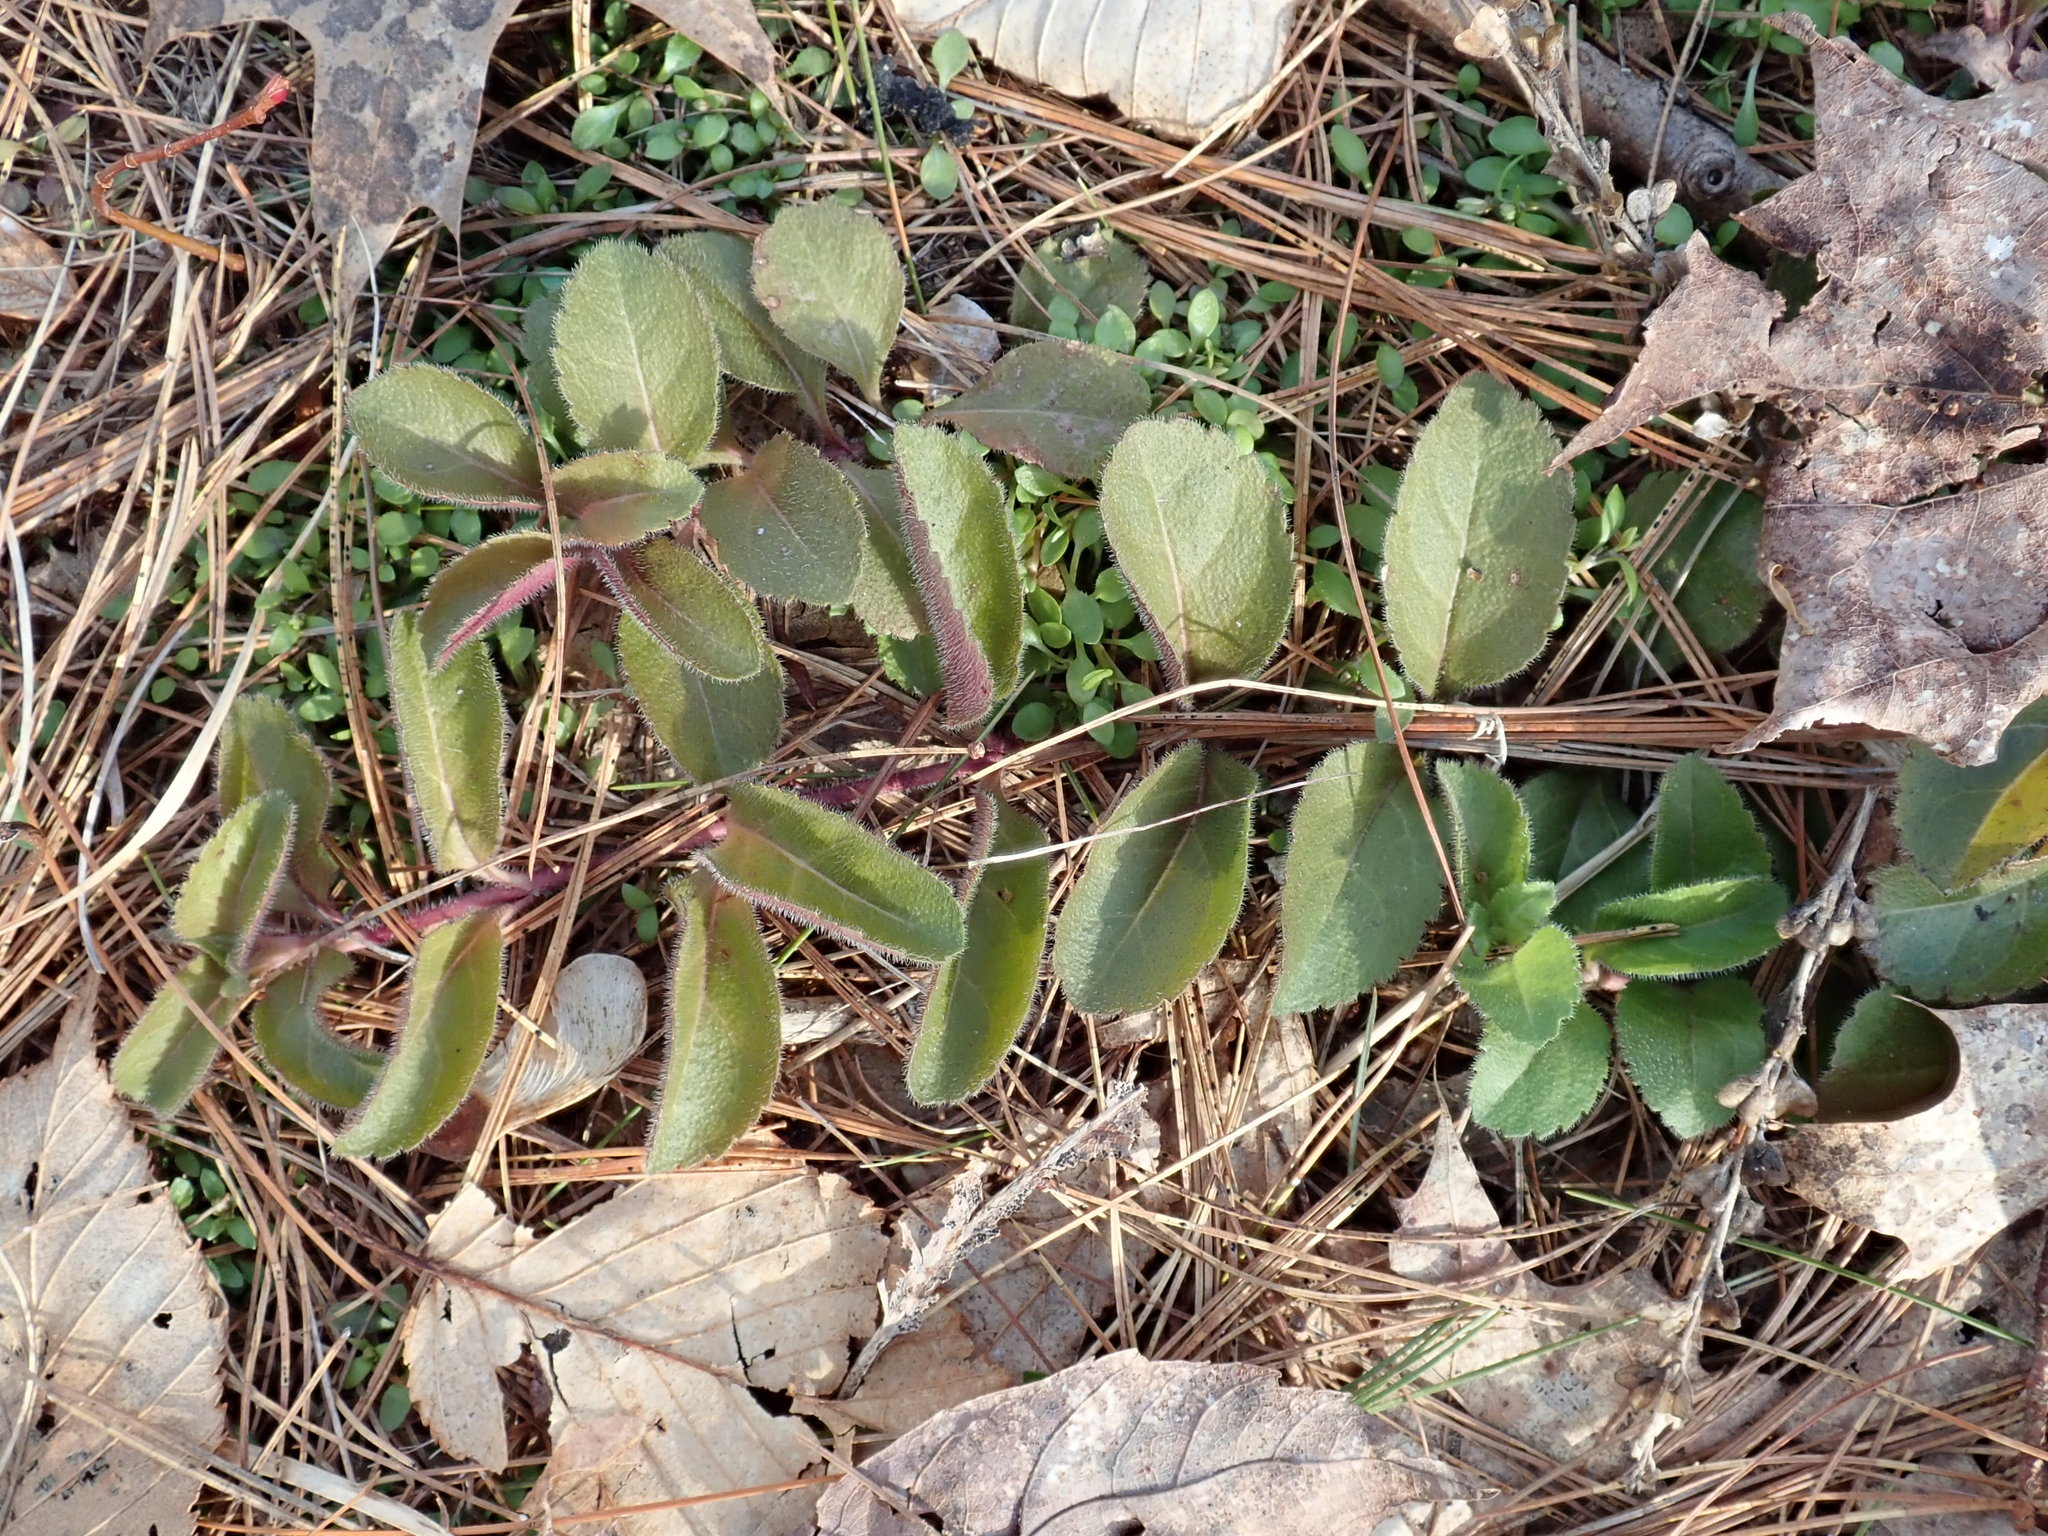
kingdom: Plantae
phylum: Tracheophyta
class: Magnoliopsida
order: Lamiales
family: Plantaginaceae
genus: Veronica
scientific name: Veronica officinalis
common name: Common speedwell
